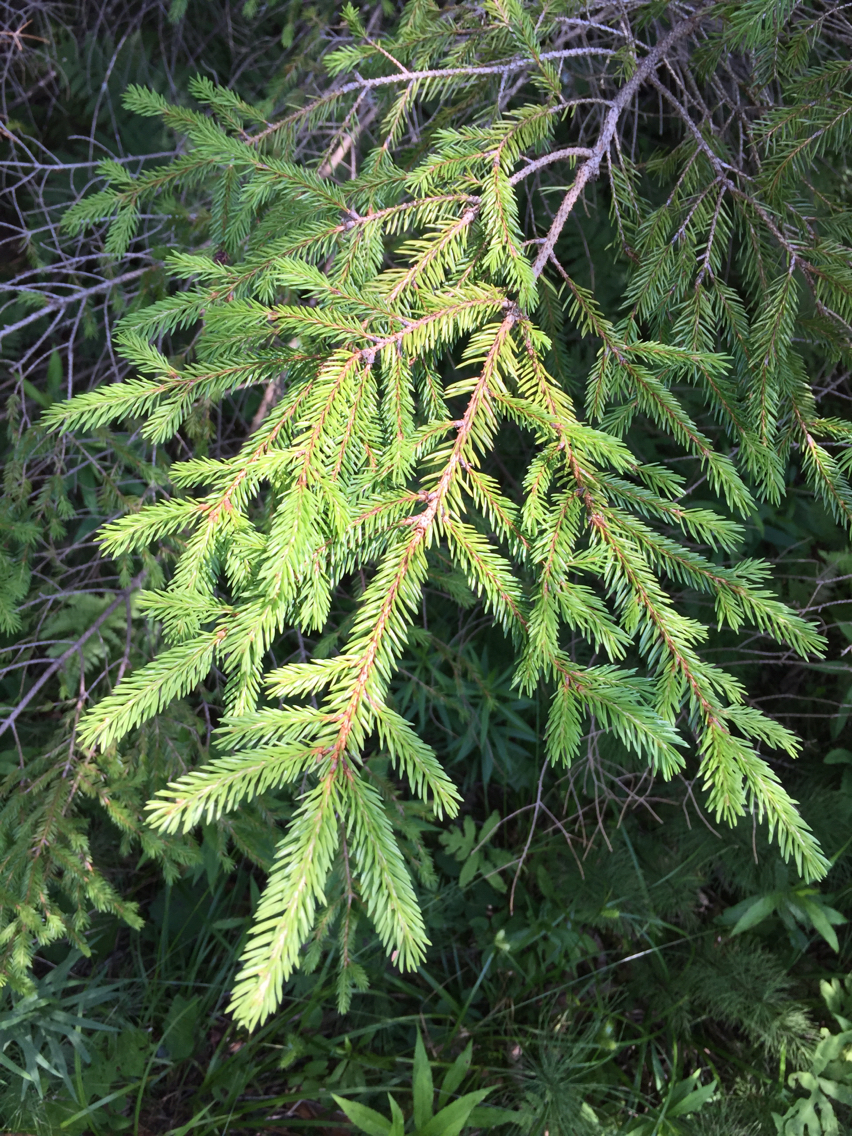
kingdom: Plantae
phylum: Tracheophyta
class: Pinopsida
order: Pinales
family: Pinaceae
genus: Picea
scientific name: Picea rubens
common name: Red spruce
